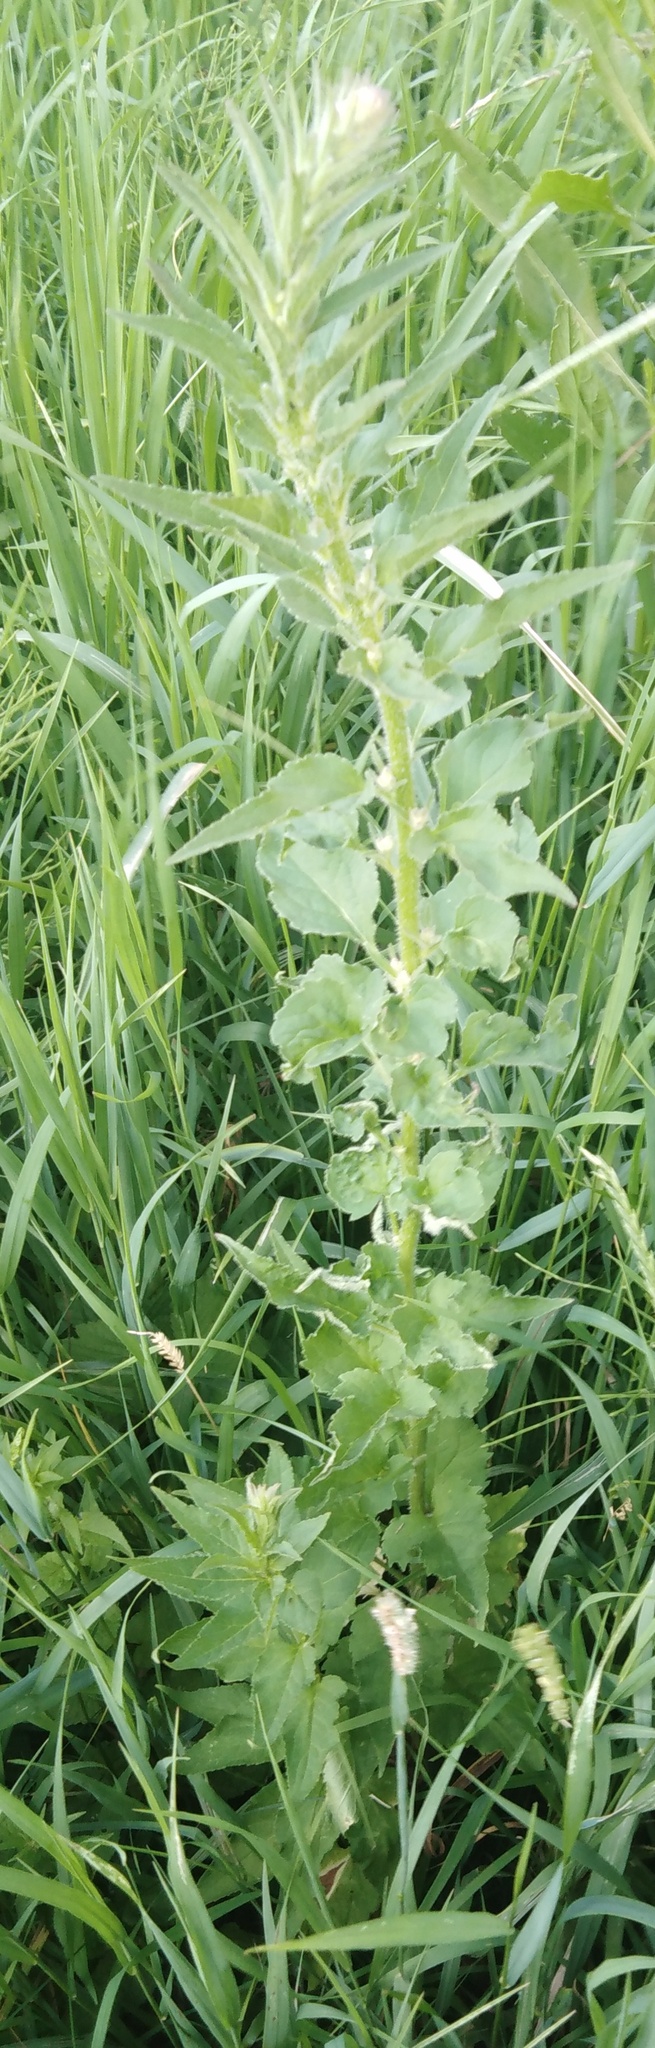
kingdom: Plantae
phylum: Tracheophyta
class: Magnoliopsida
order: Asterales
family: Campanulaceae
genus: Campanula
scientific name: Campanula rapunculoides
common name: Creeping bellflower
